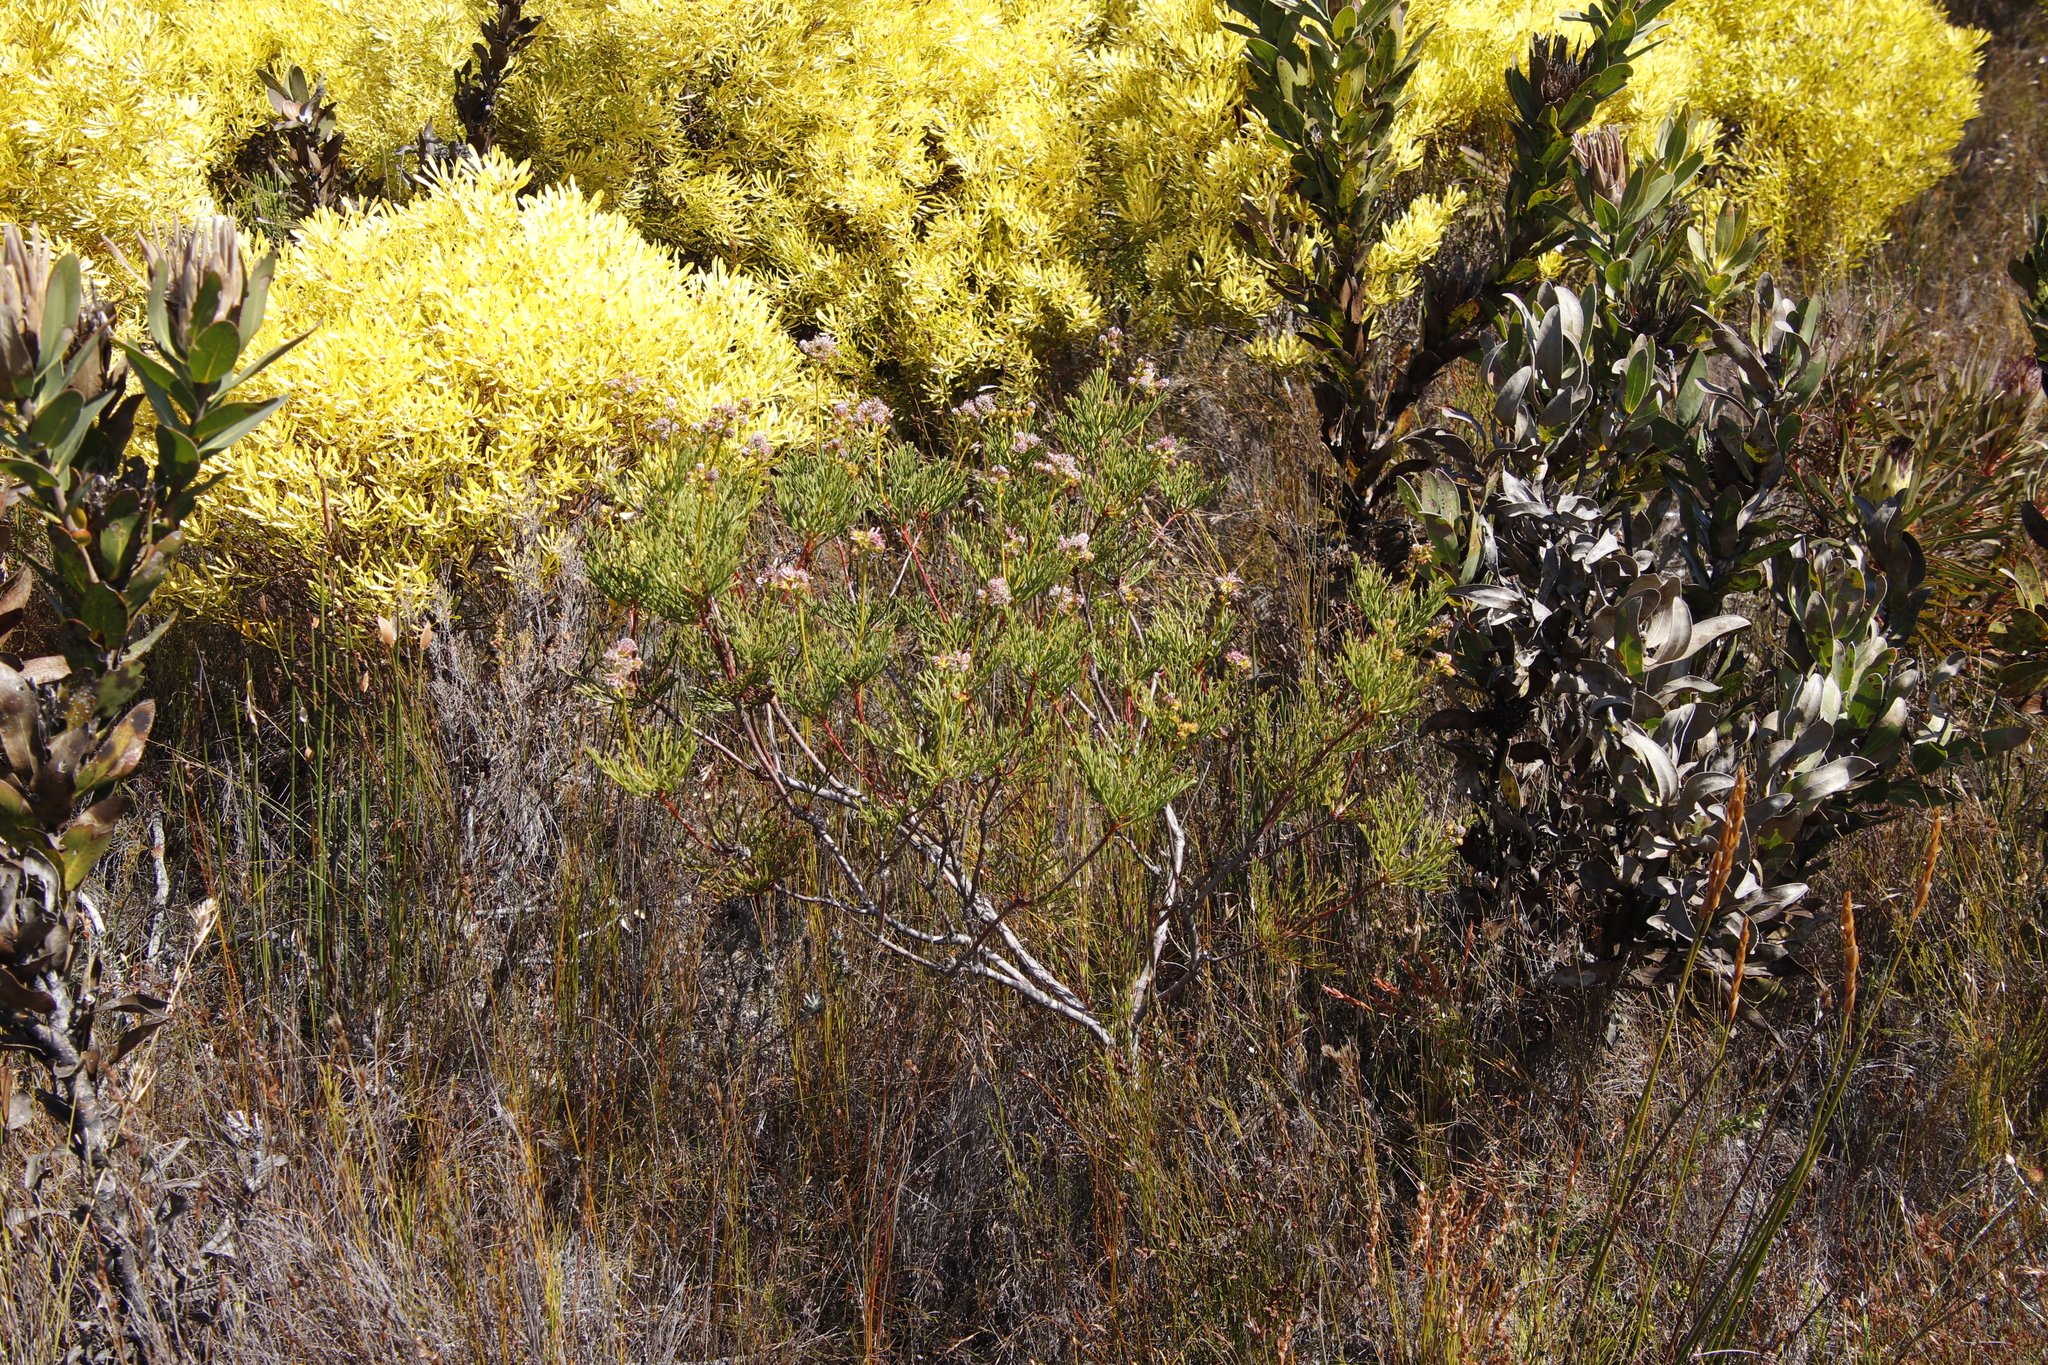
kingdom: Plantae
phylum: Tracheophyta
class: Magnoliopsida
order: Proteales
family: Proteaceae
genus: Serruria
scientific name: Serruria elongata
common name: Long-stalk spiderhead
